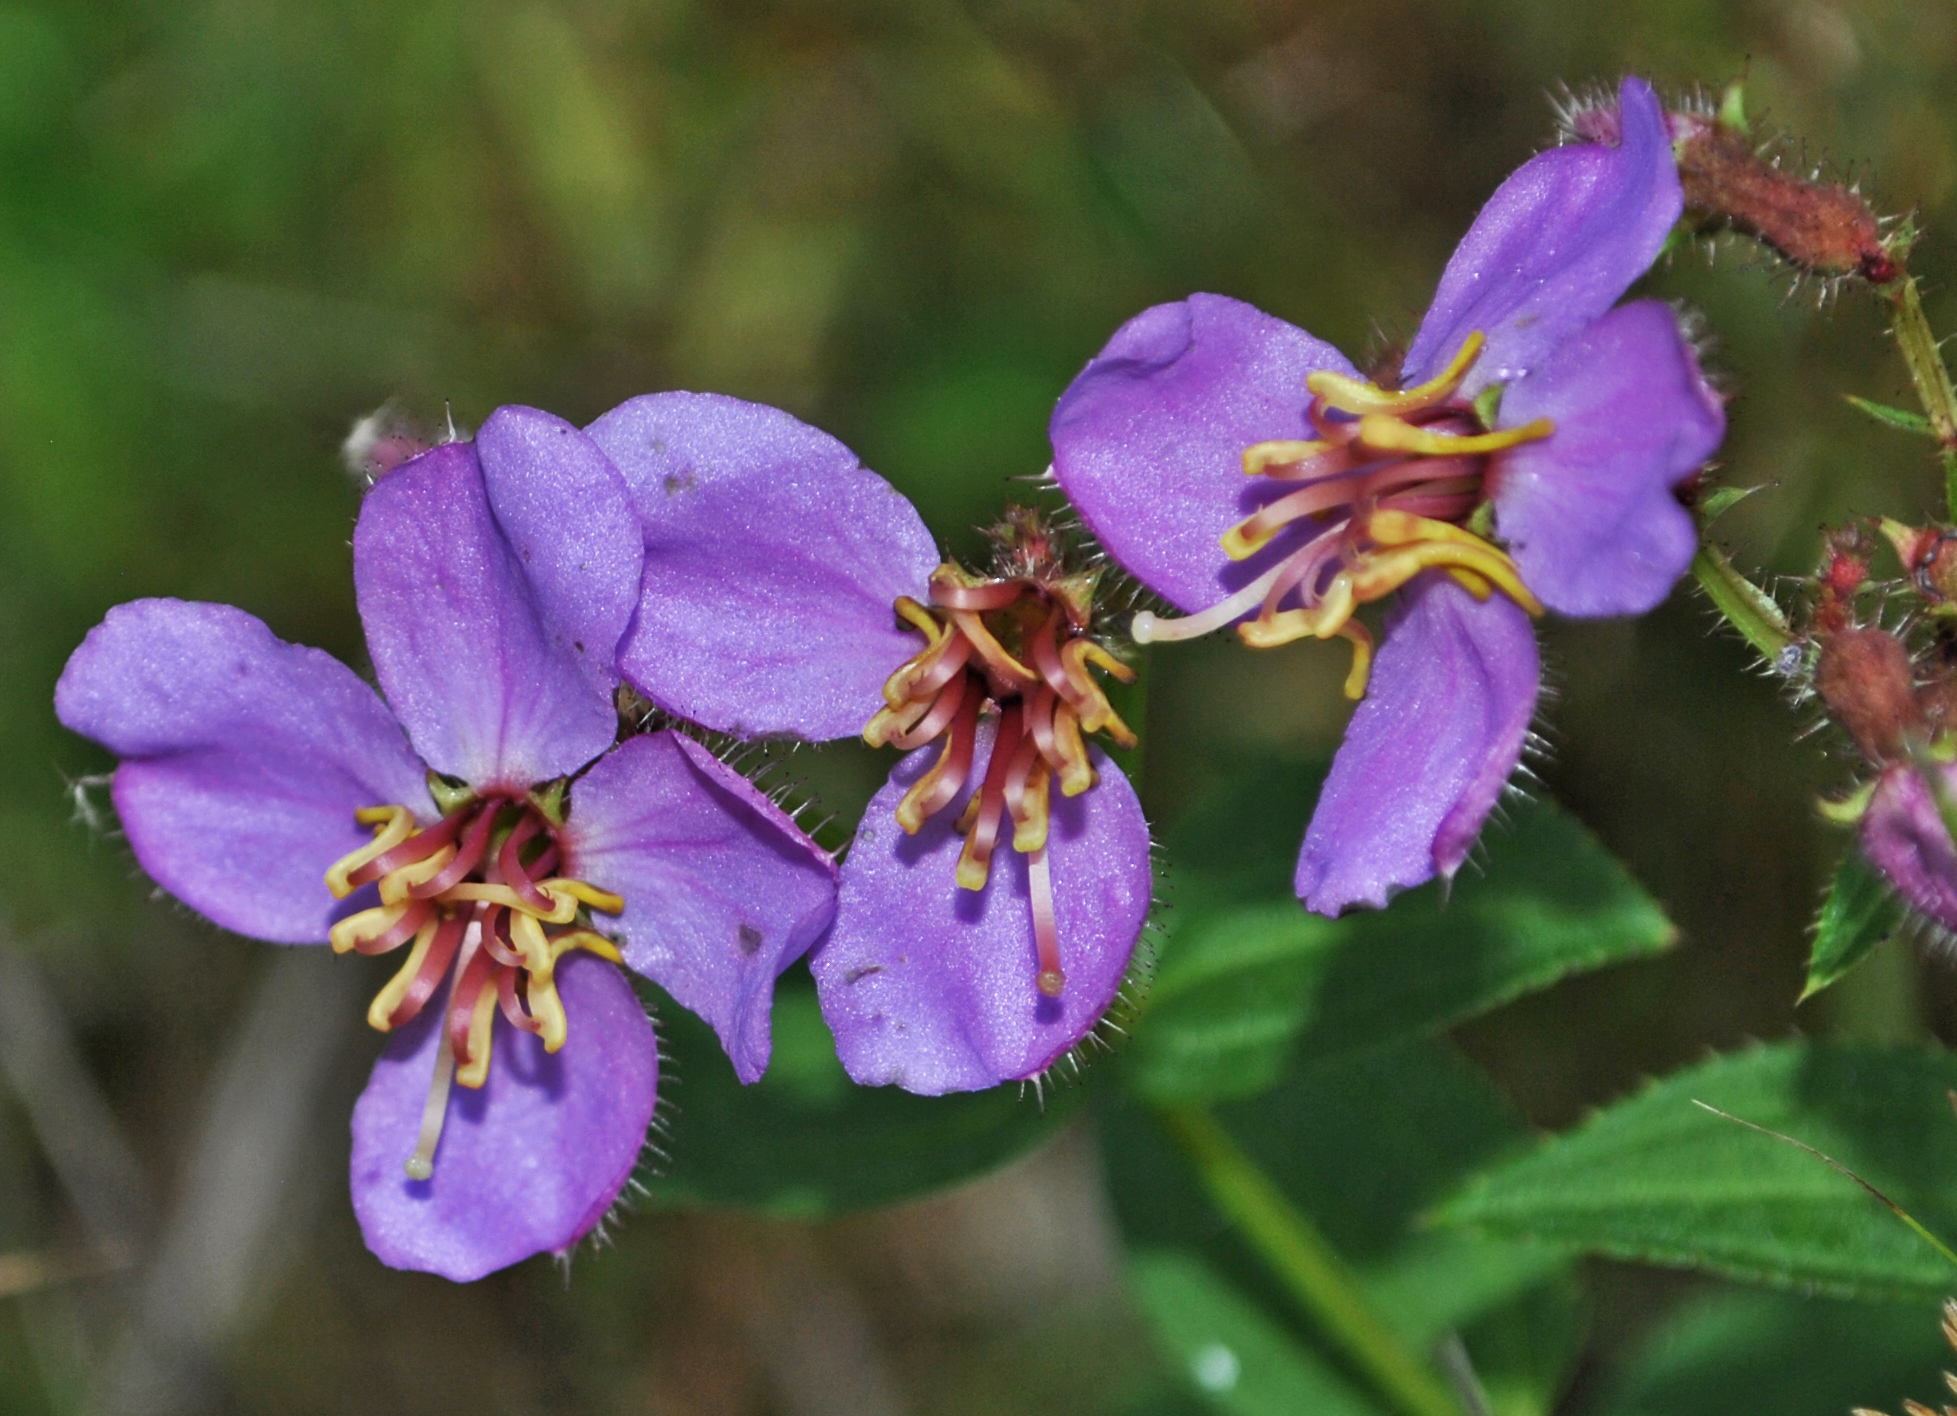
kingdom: Plantae
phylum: Tracheophyta
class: Magnoliopsida
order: Myrtales
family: Melastomataceae
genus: Rhexia
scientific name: Rhexia virginica
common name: Common meadow beauty
